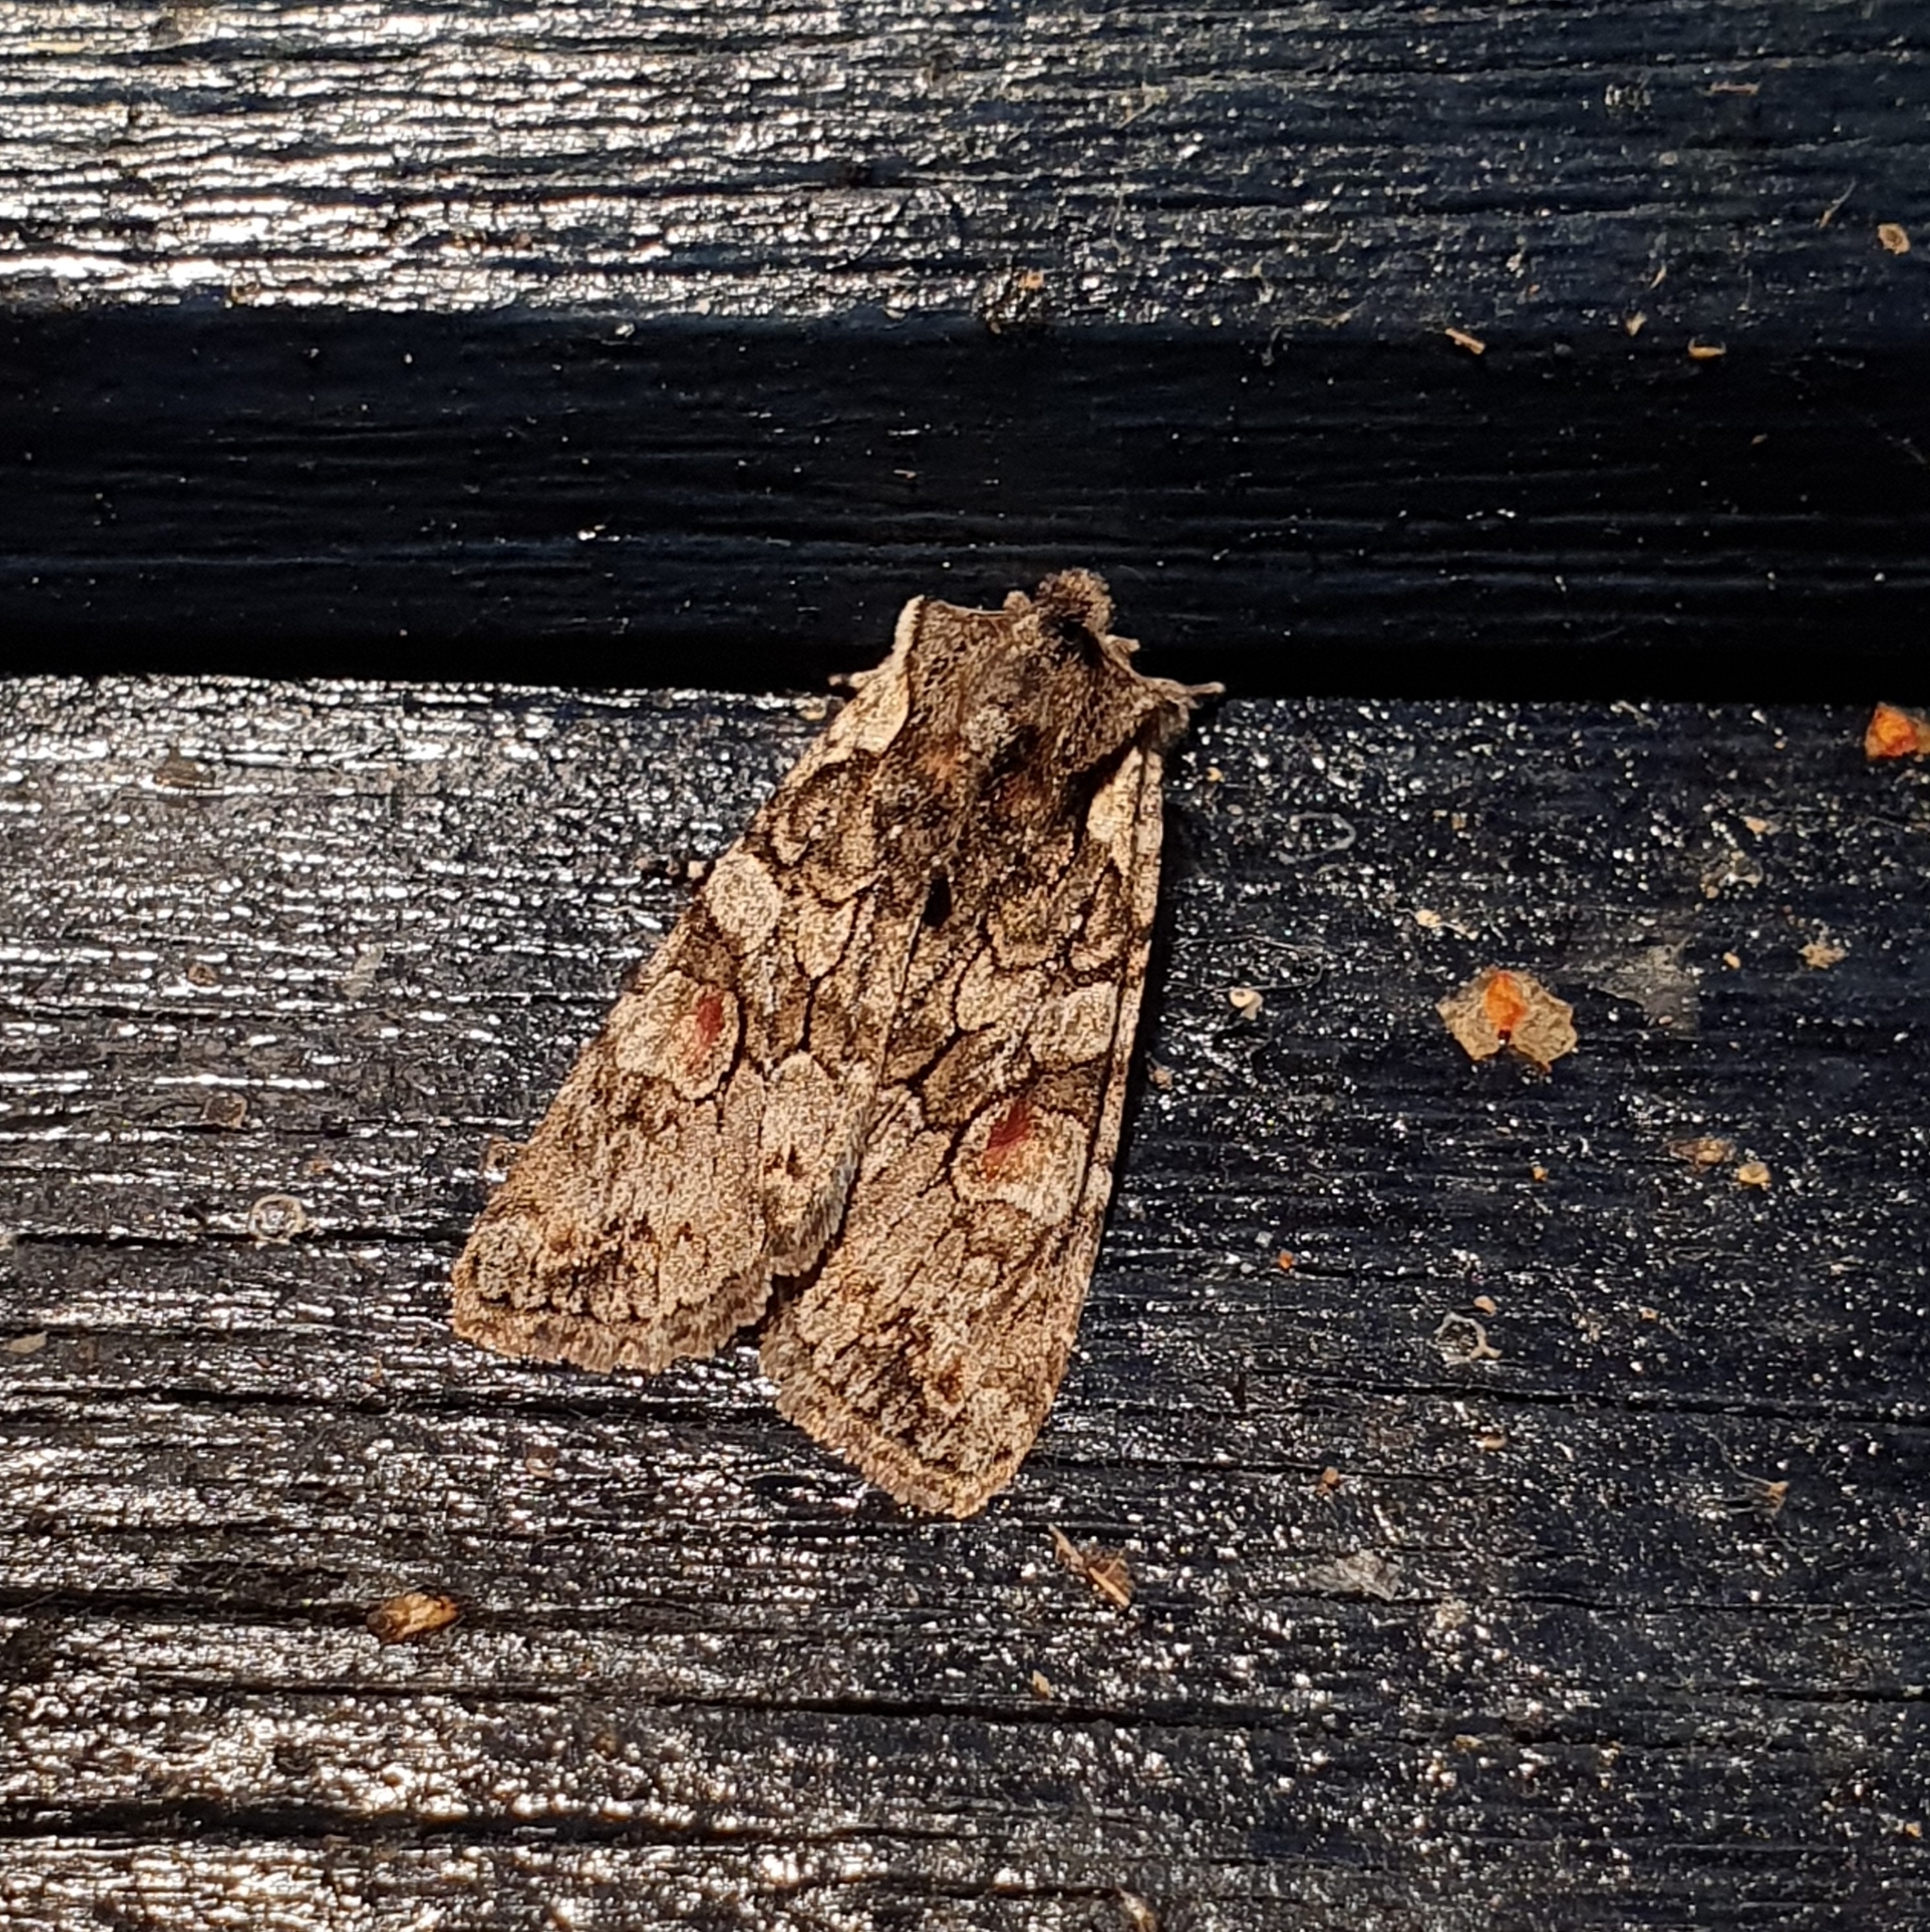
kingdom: Animalia
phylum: Arthropoda
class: Insecta
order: Lepidoptera
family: Noctuidae
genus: Lithophane
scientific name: Lithophane consocia
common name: Softly's shoulder-knot
